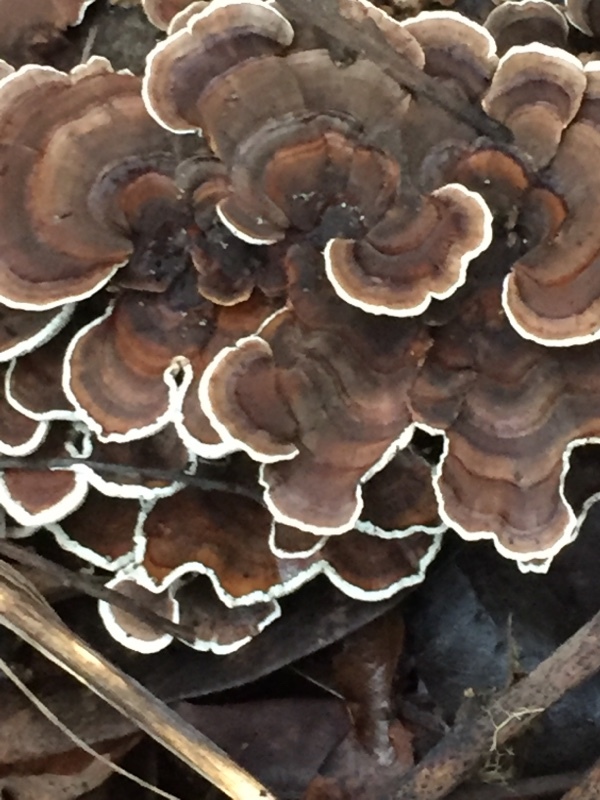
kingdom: Fungi
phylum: Basidiomycota
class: Agaricomycetes
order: Polyporales
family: Polyporaceae
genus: Trametes
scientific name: Trametes versicolor
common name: Turkeytail
